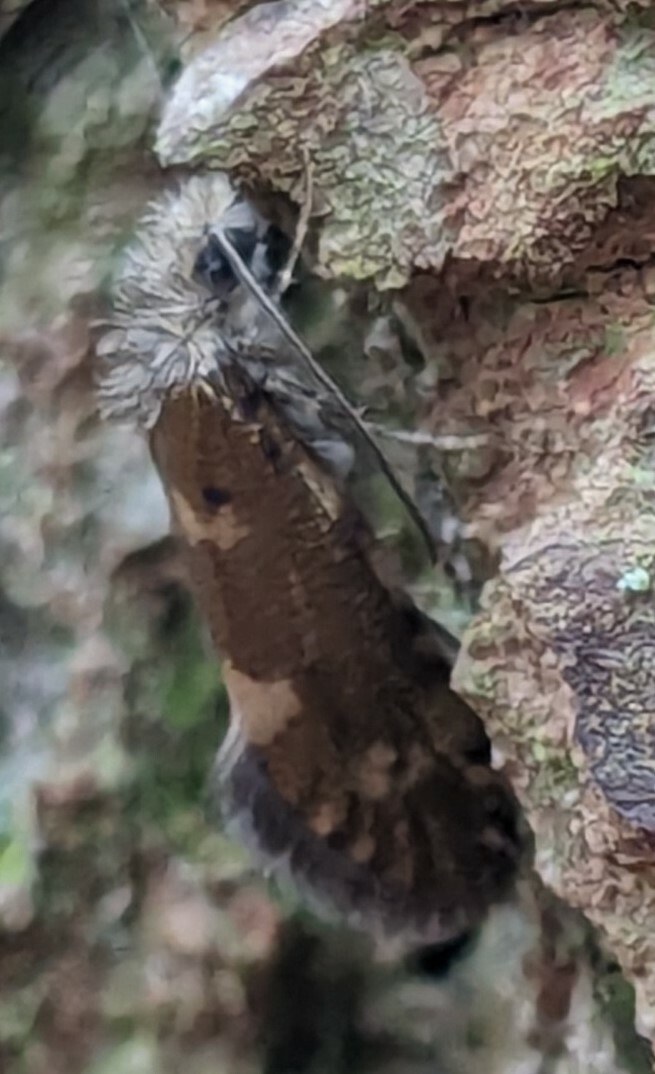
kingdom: Animalia
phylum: Arthropoda
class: Insecta
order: Lepidoptera
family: Eriocraniidae
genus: Dyseriocrania
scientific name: Dyseriocrania subpurpurella
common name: Common oak purple
